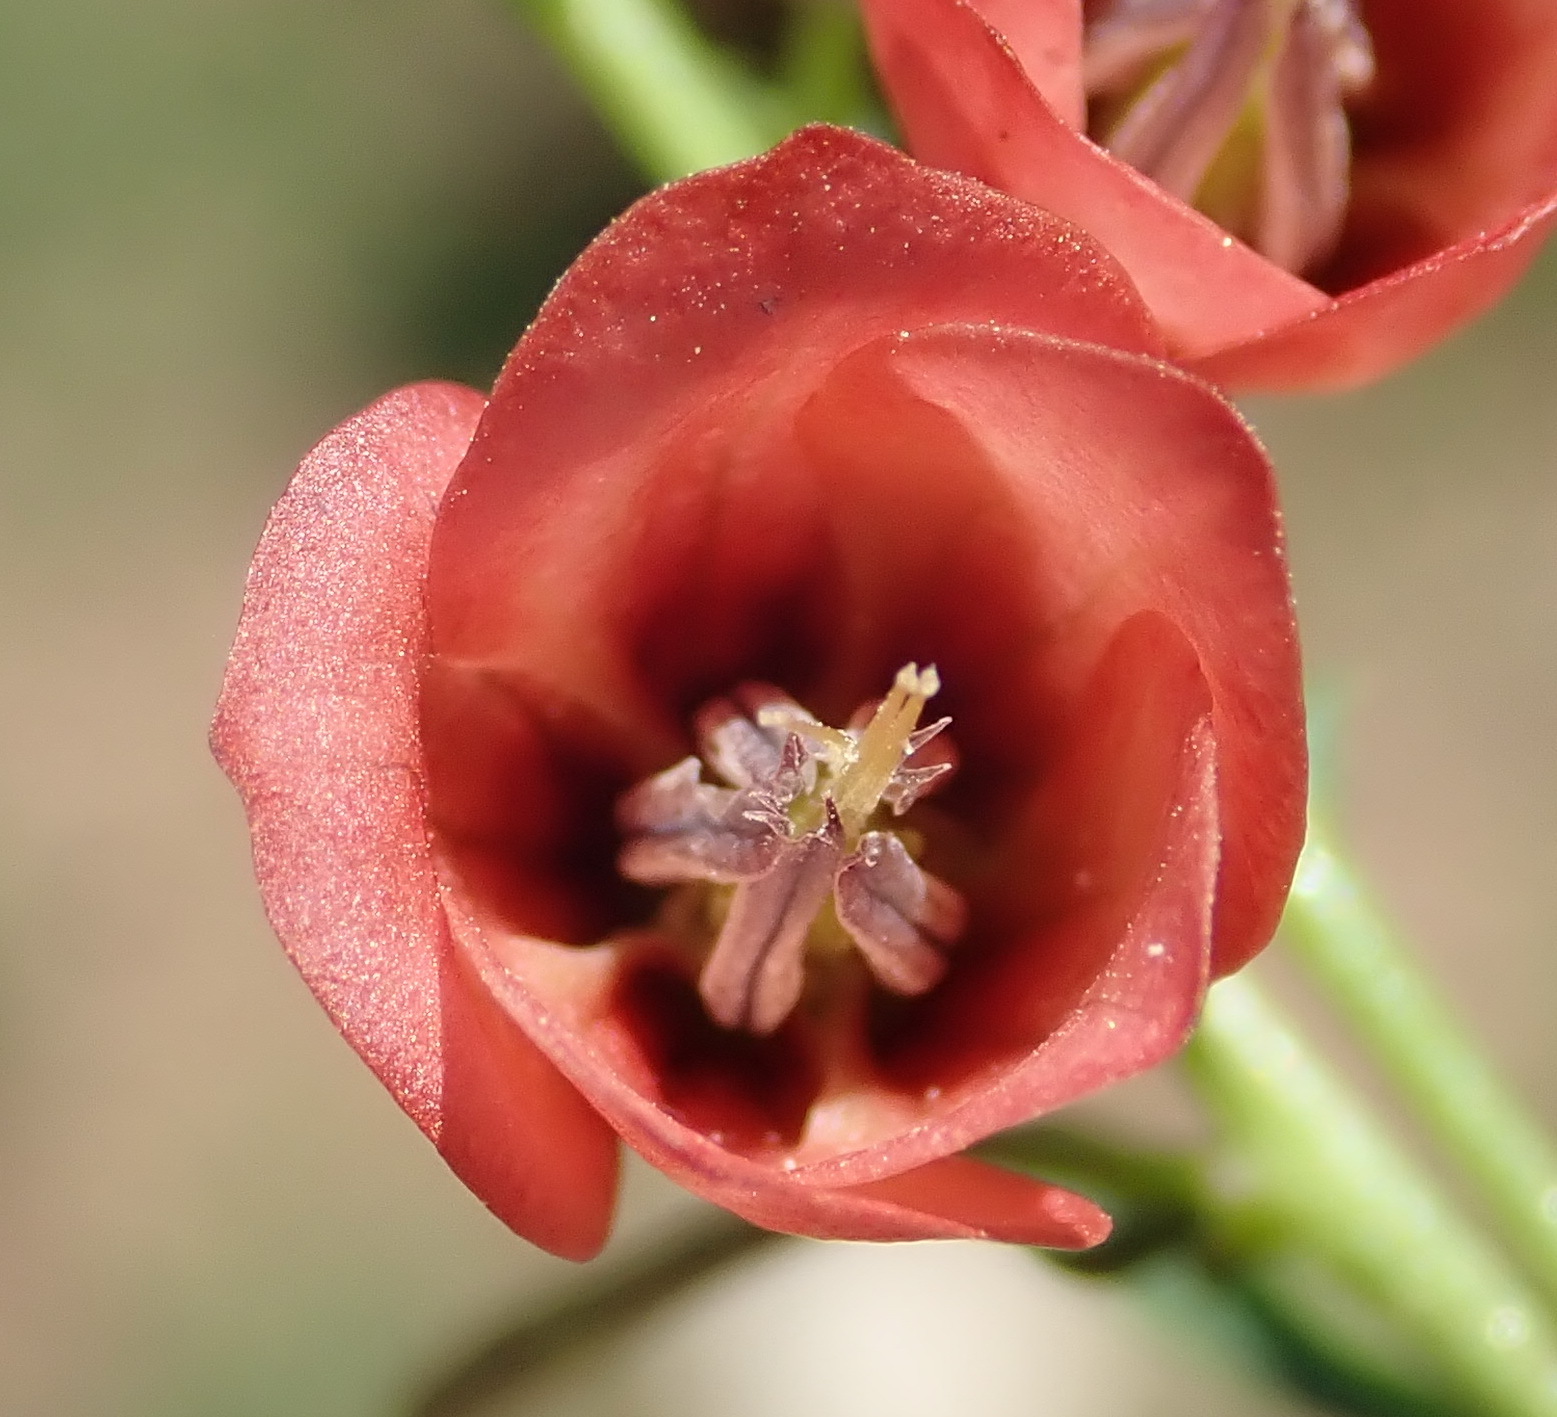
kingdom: Plantae
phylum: Tracheophyta
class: Magnoliopsida
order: Malvales
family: Malvaceae
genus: Hermannia
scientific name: Hermannia linearifolia
